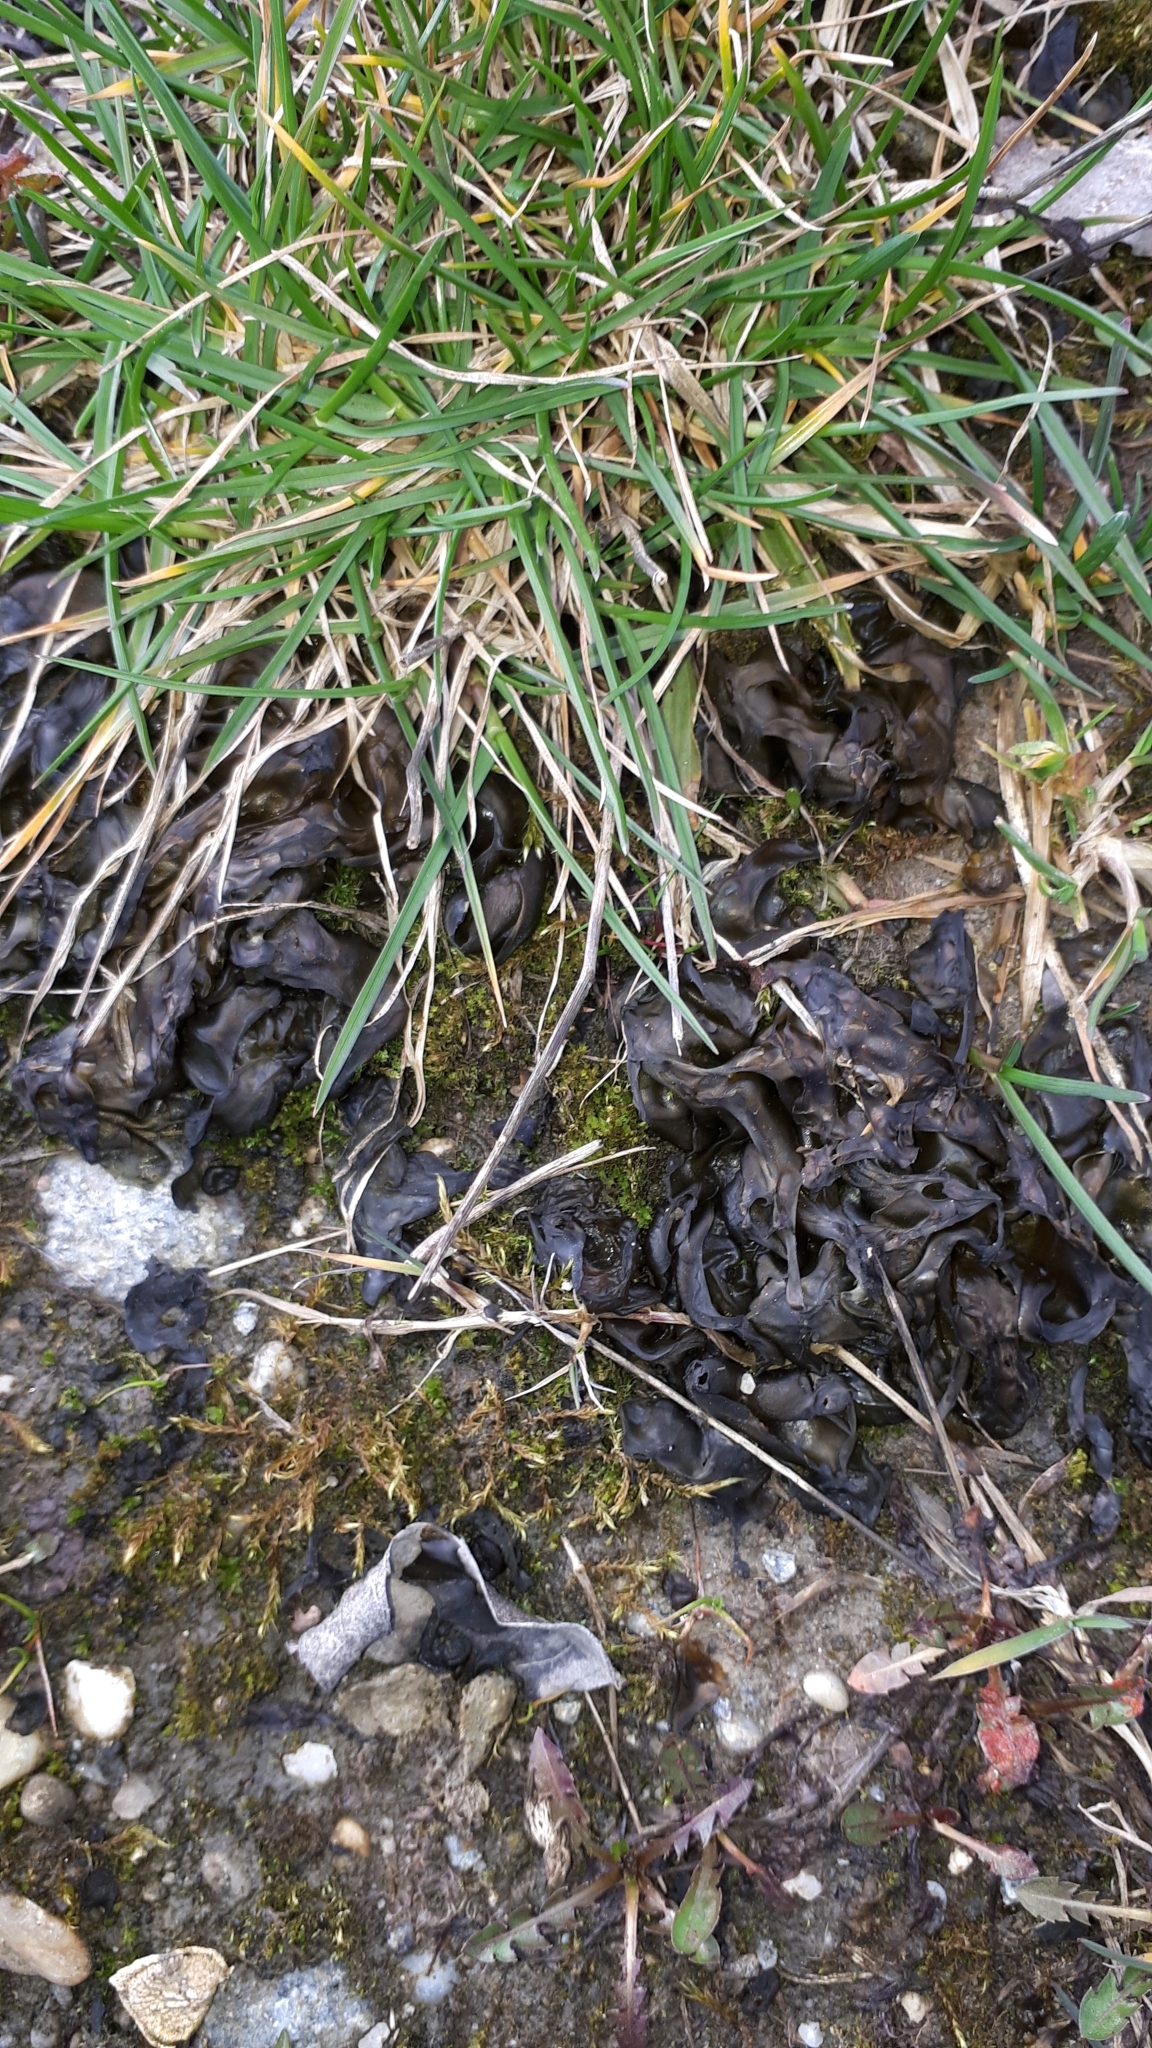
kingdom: Bacteria
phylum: Cyanobacteria
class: Cyanobacteriia
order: Cyanobacteriales
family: Nostocaceae
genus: Nostoc
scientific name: Nostoc commune
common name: Star jelly
